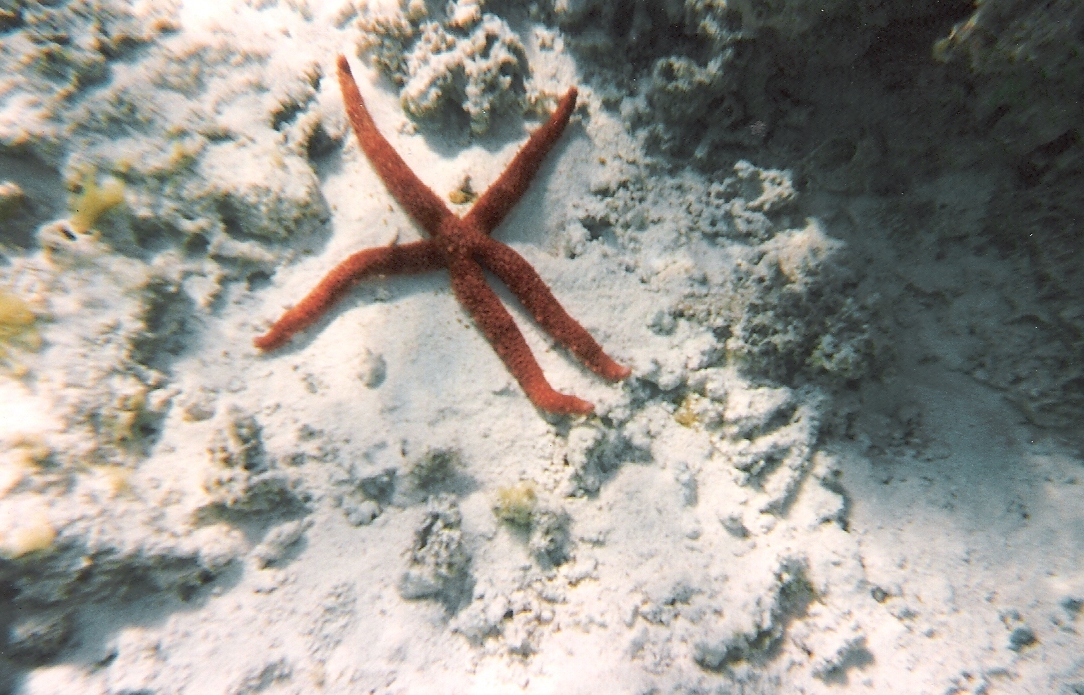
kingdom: Animalia
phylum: Echinodermata
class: Asteroidea
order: Valvatida
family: Mithrodiidae
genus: Mithrodia
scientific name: Mithrodia fisheri
